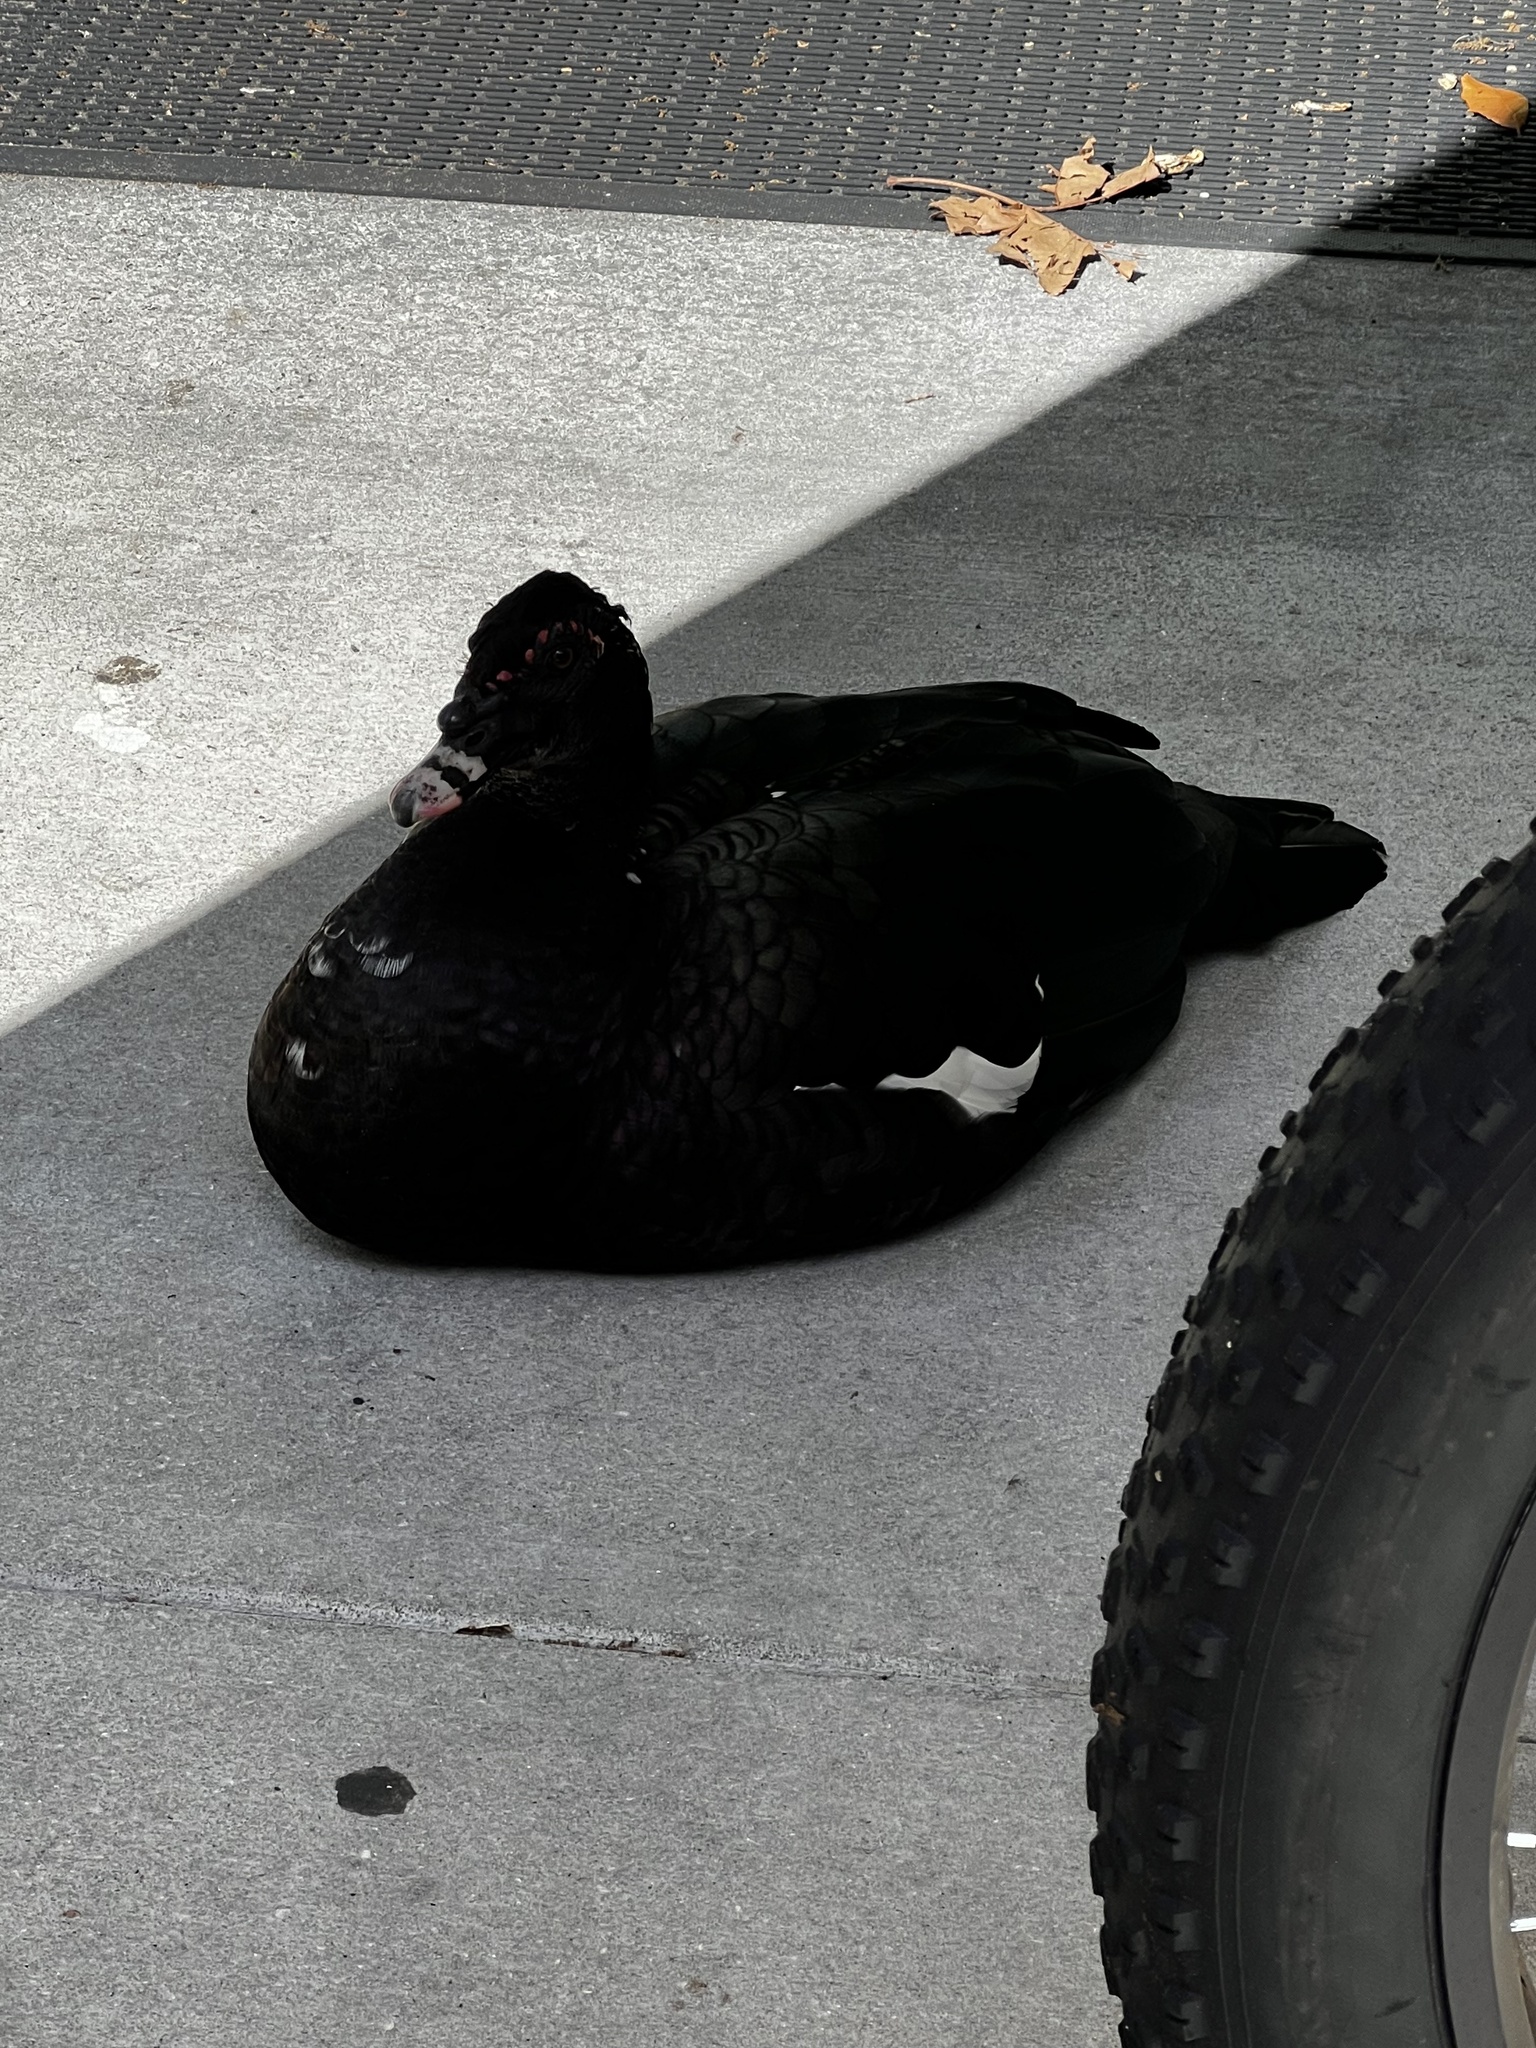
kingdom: Animalia
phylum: Chordata
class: Aves
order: Anseriformes
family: Anatidae
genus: Cairina
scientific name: Cairina moschata
